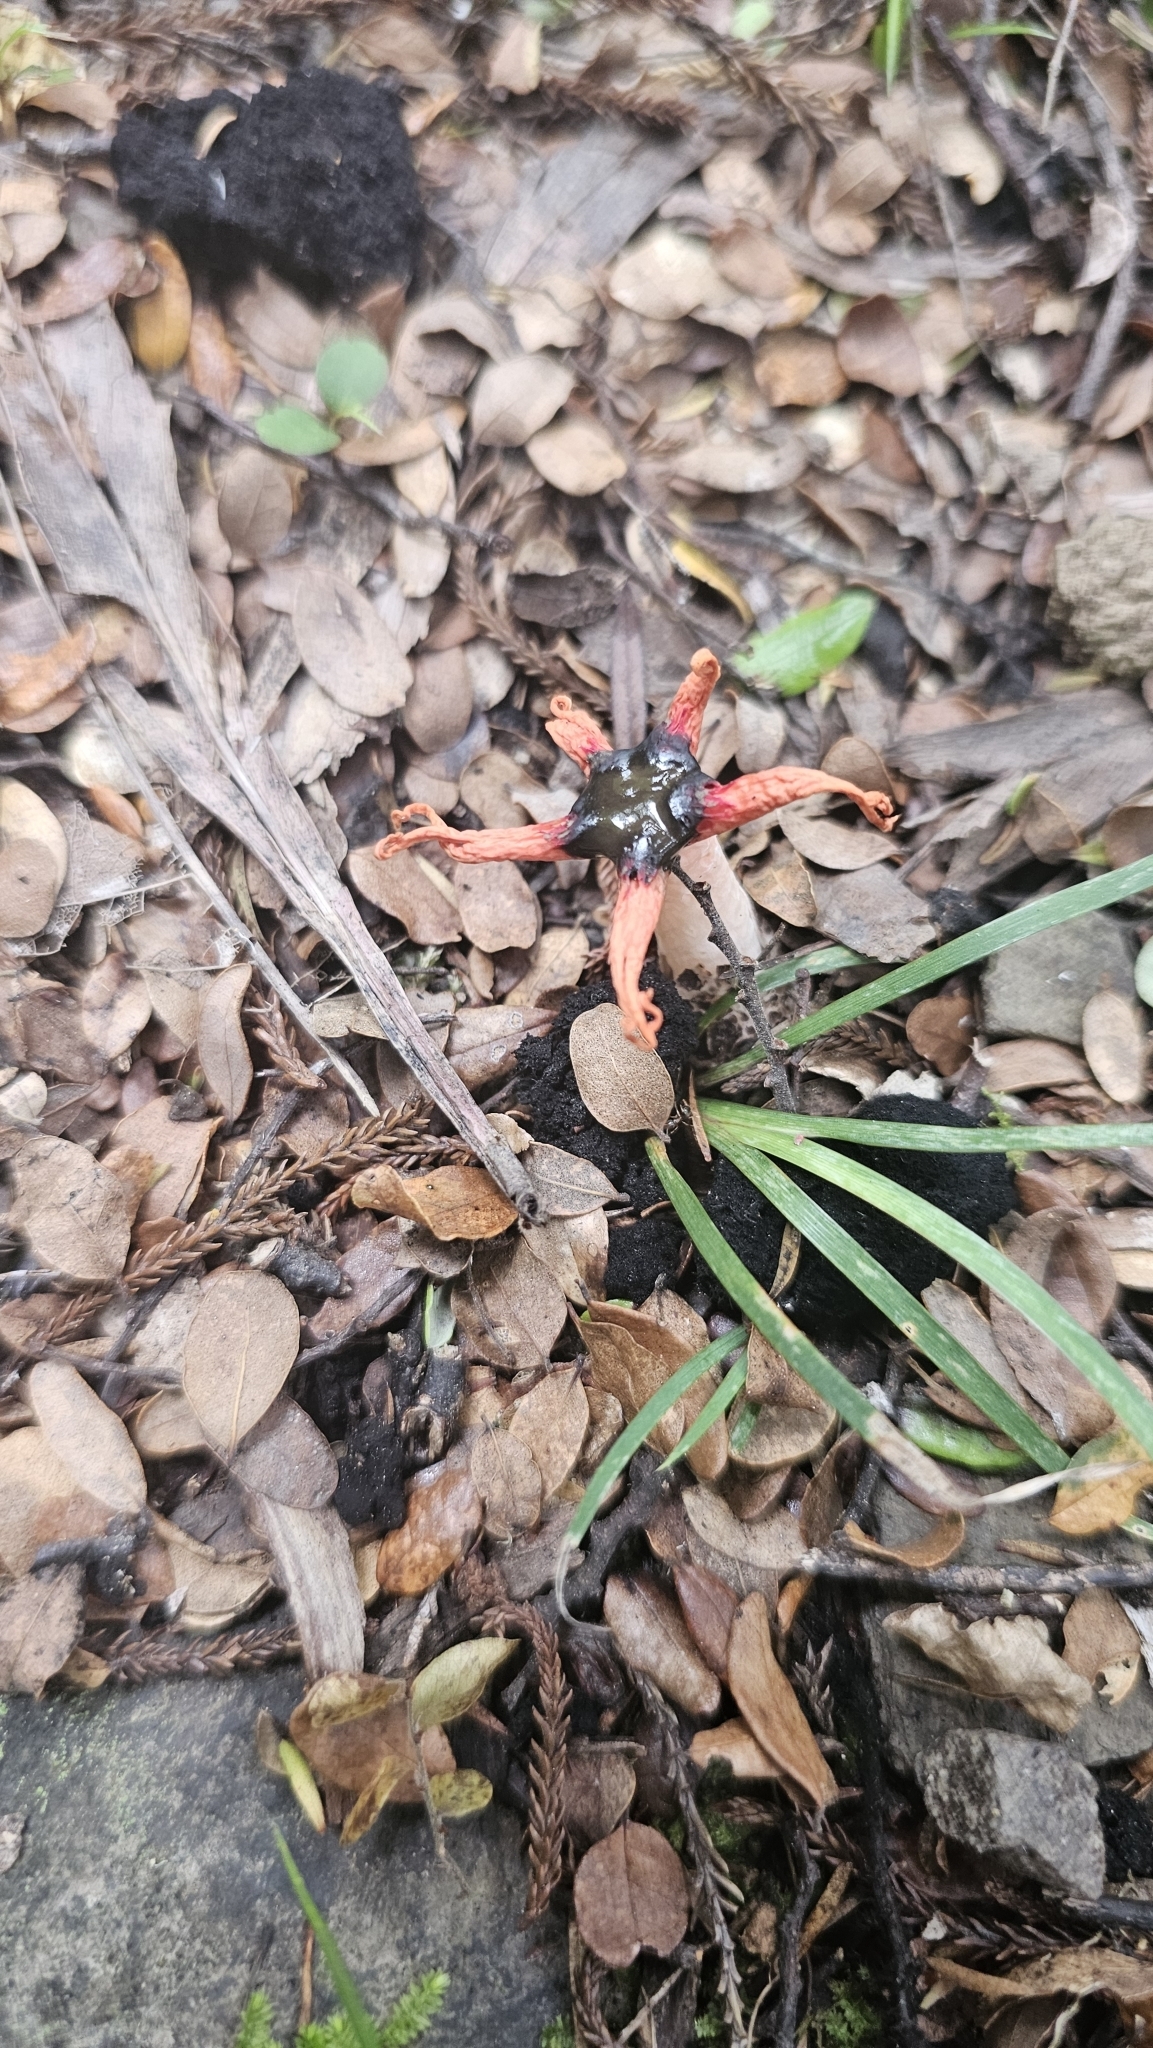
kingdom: Fungi
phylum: Basidiomycota
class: Agaricomycetes
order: Phallales
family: Phallaceae
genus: Aseroe
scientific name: Aseroe rubra
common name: Starfish fungus
